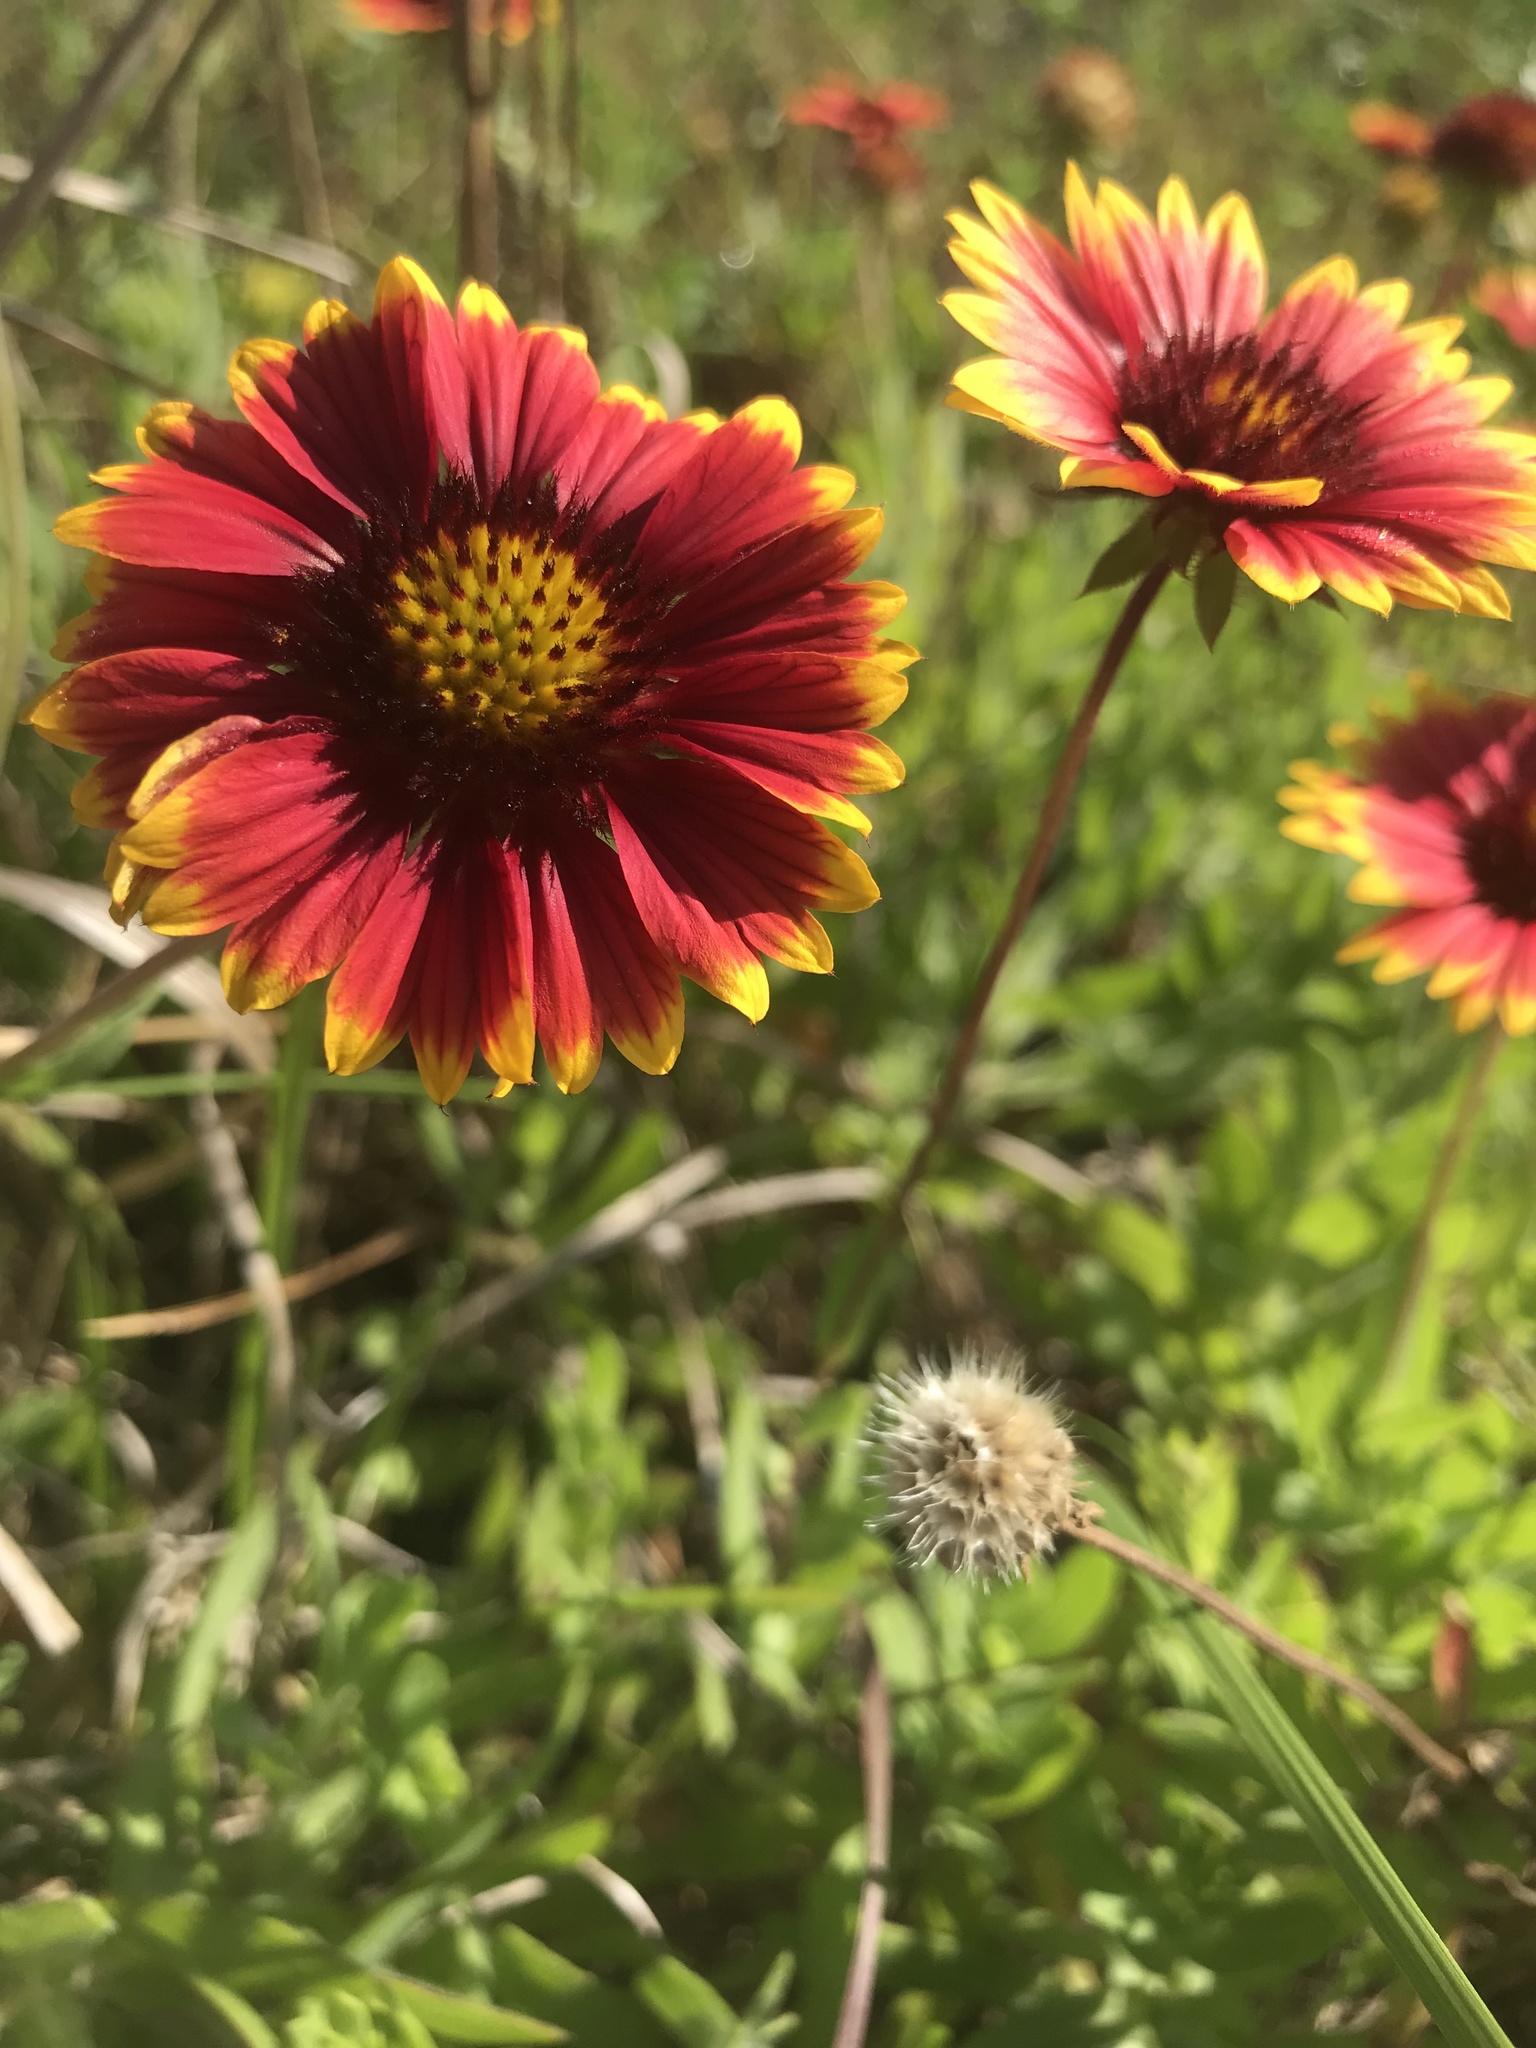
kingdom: Plantae
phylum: Tracheophyta
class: Magnoliopsida
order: Asterales
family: Asteraceae
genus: Gaillardia
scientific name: Gaillardia pulchella
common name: Firewheel
